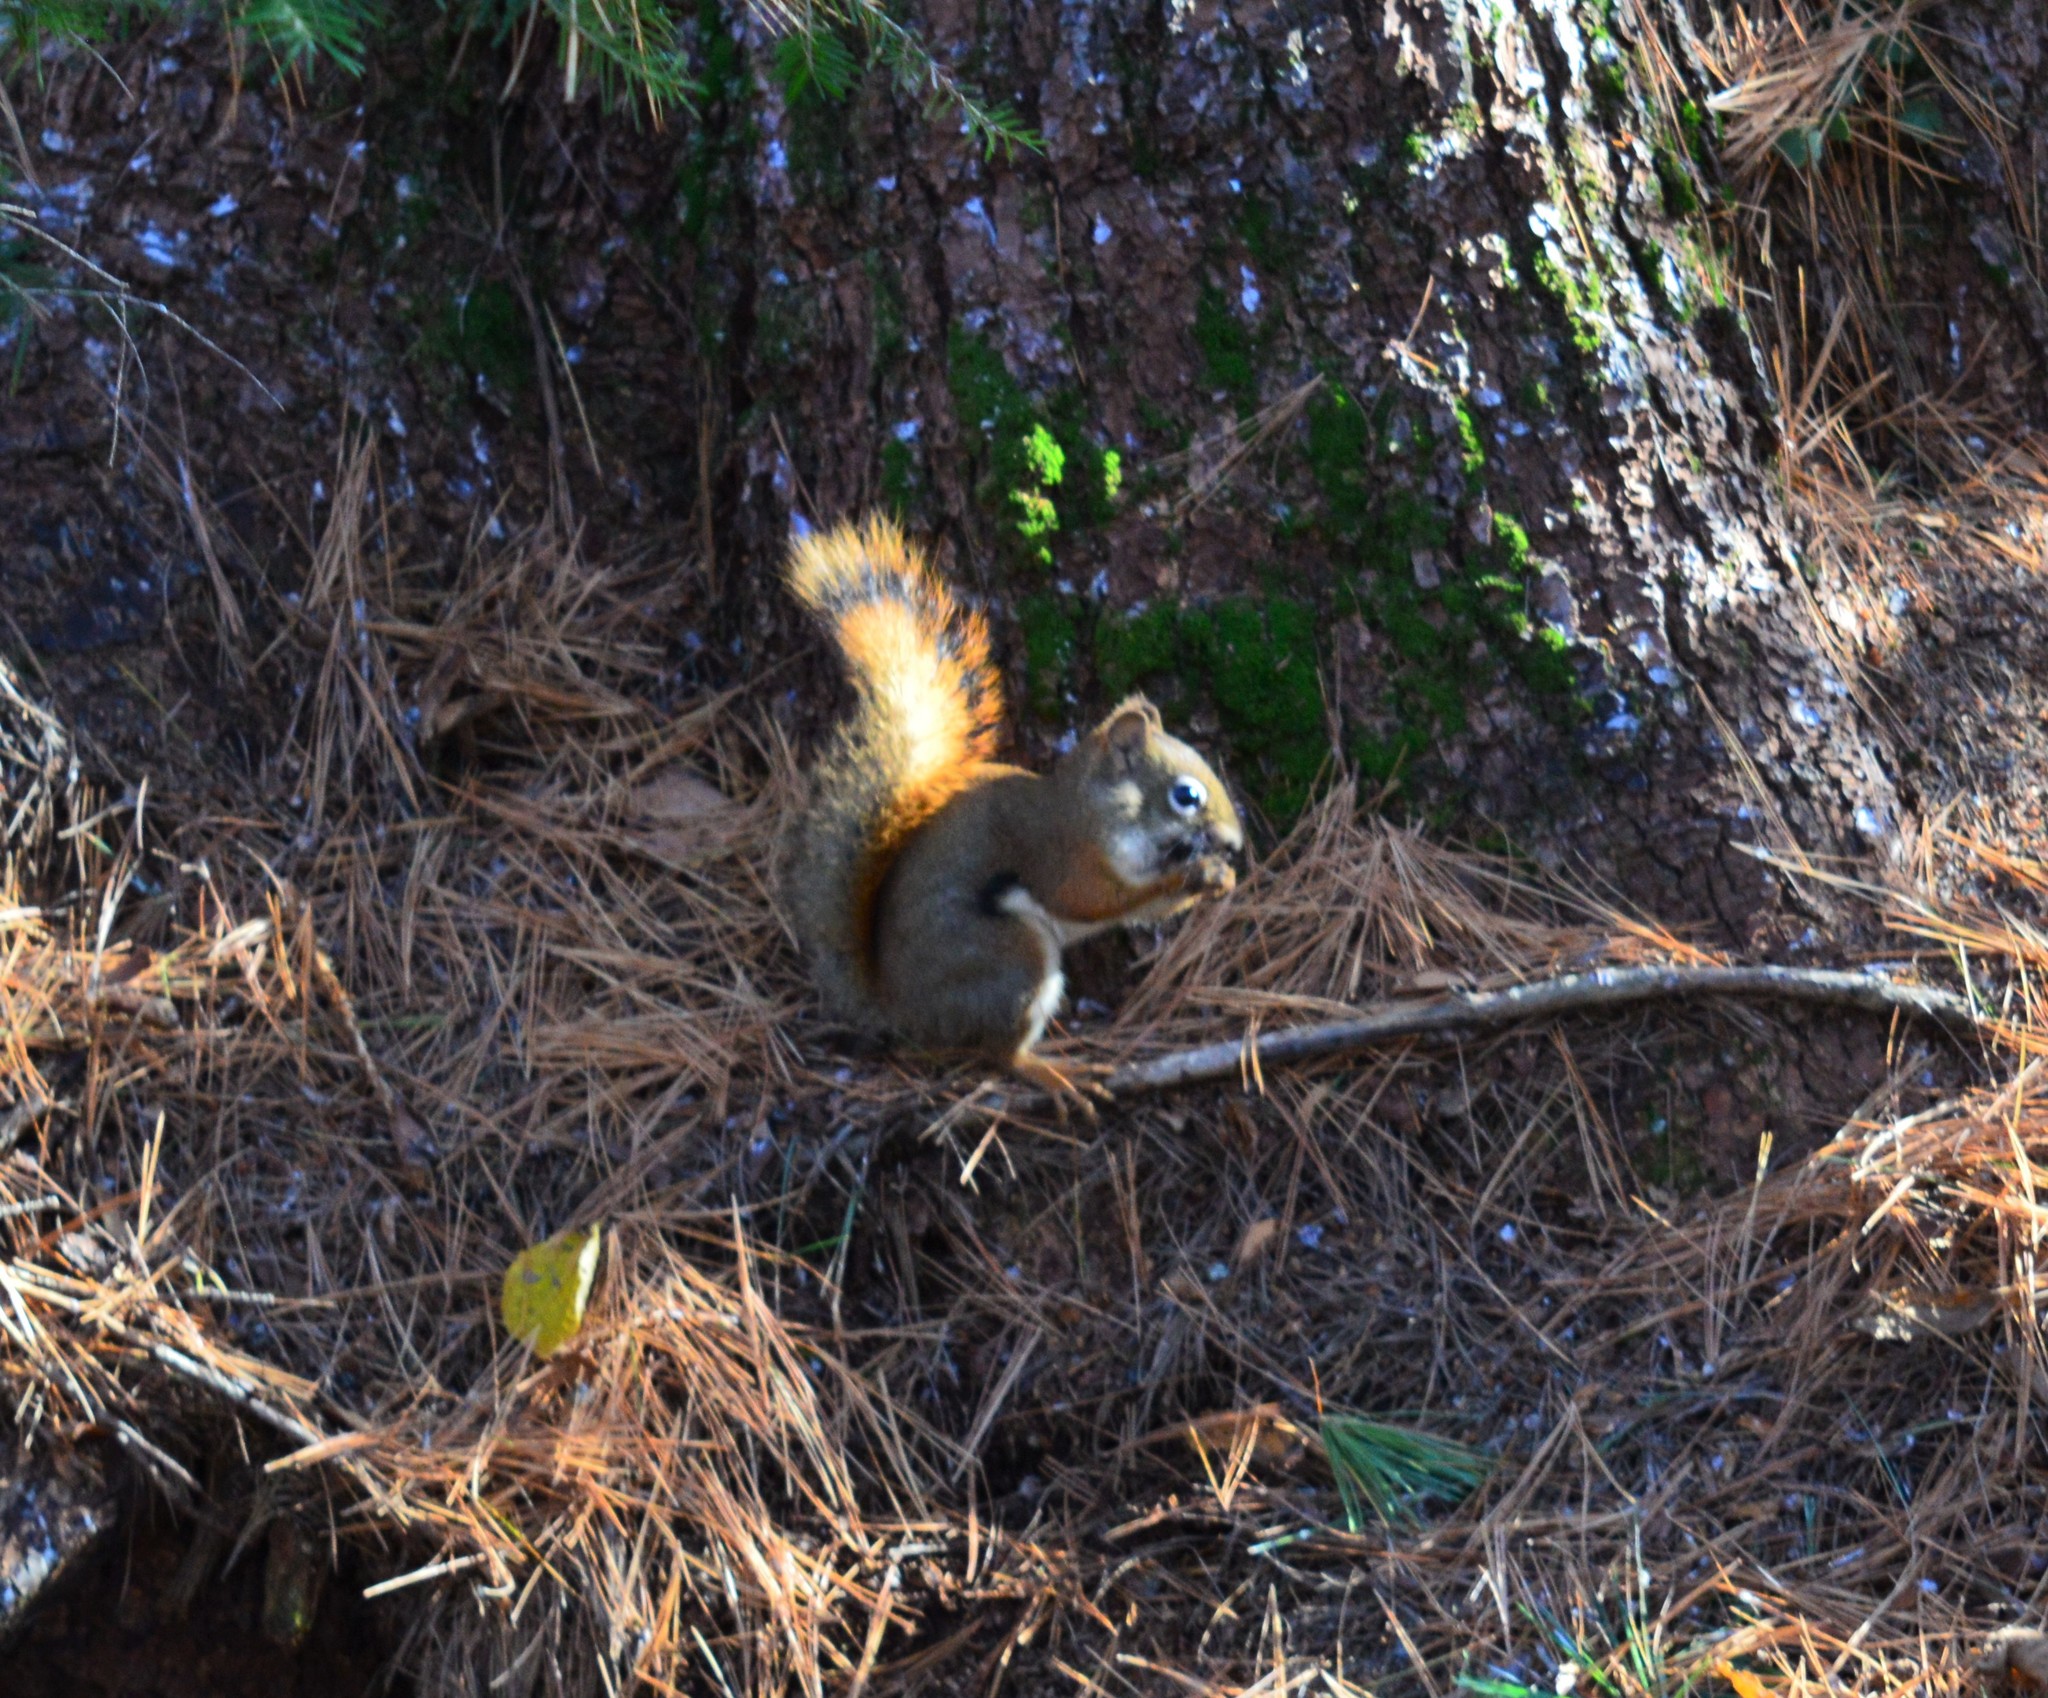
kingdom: Animalia
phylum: Chordata
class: Mammalia
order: Rodentia
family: Sciuridae
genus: Tamiasciurus
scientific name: Tamiasciurus hudsonicus
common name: Red squirrel
